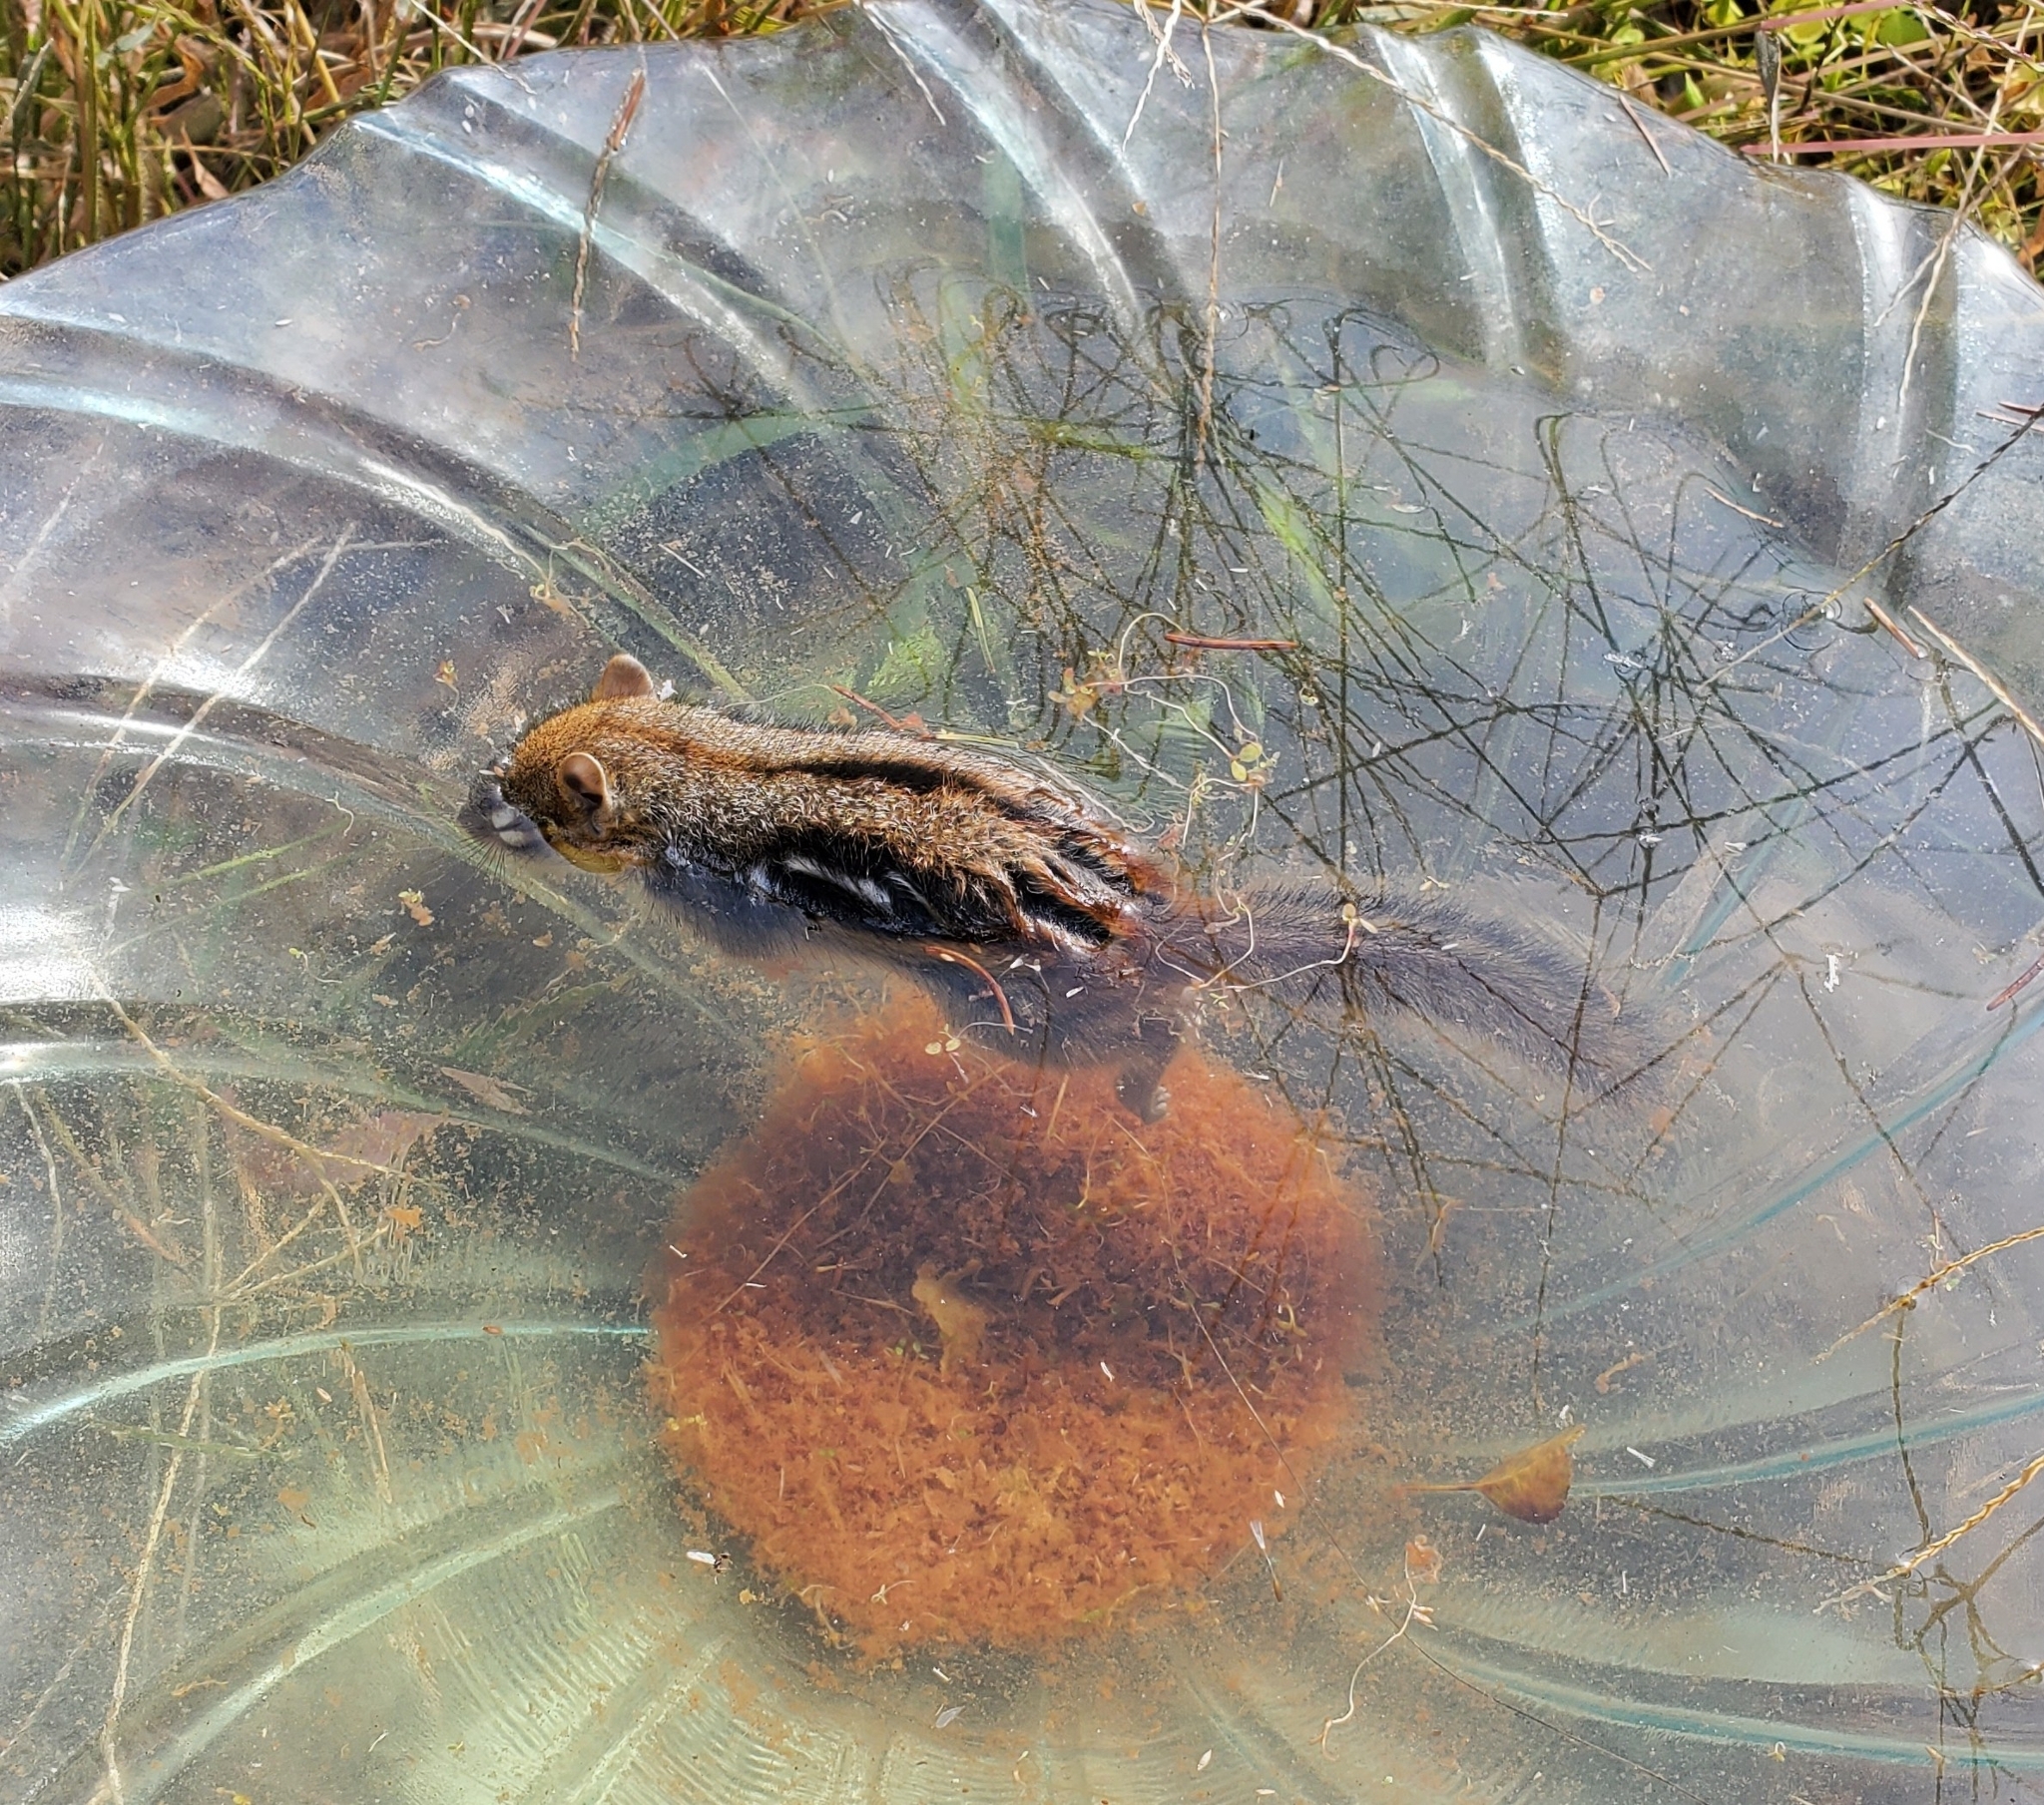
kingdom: Animalia
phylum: Chordata
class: Mammalia
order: Rodentia
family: Sciuridae
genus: Tamias
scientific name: Tamias striatus
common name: Eastern chipmunk
